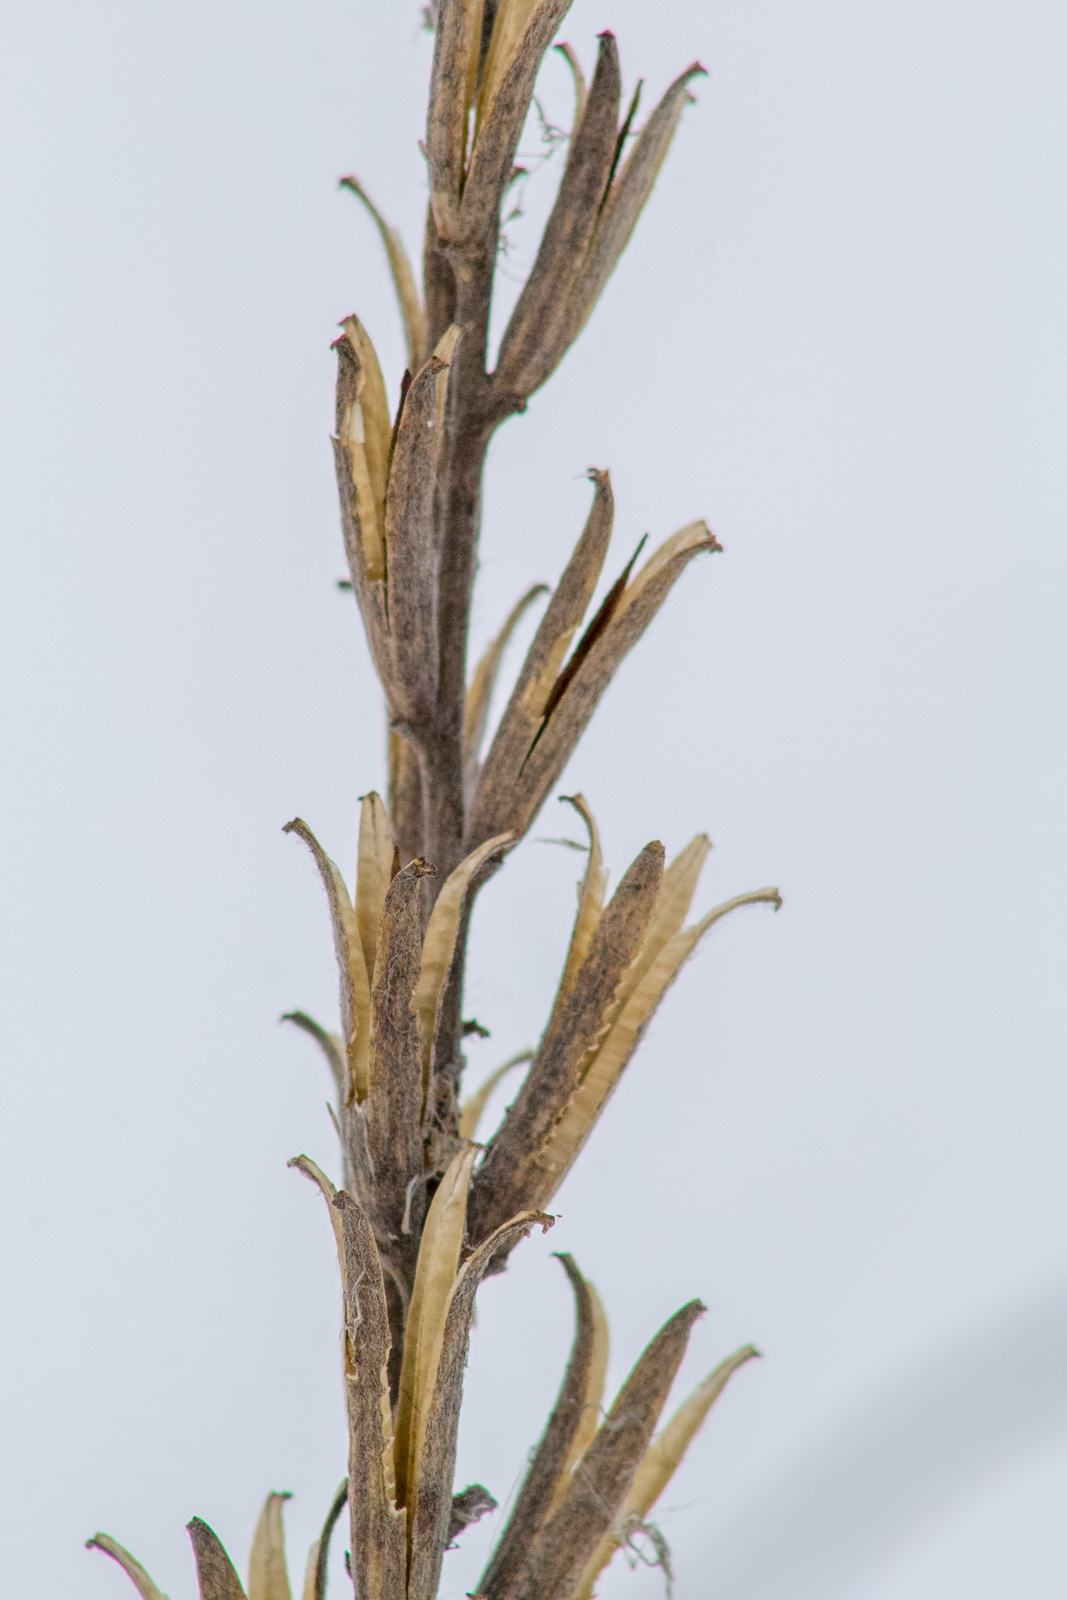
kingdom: Plantae
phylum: Tracheophyta
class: Magnoliopsida
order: Myrtales
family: Onagraceae
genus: Oenothera
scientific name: Oenothera
